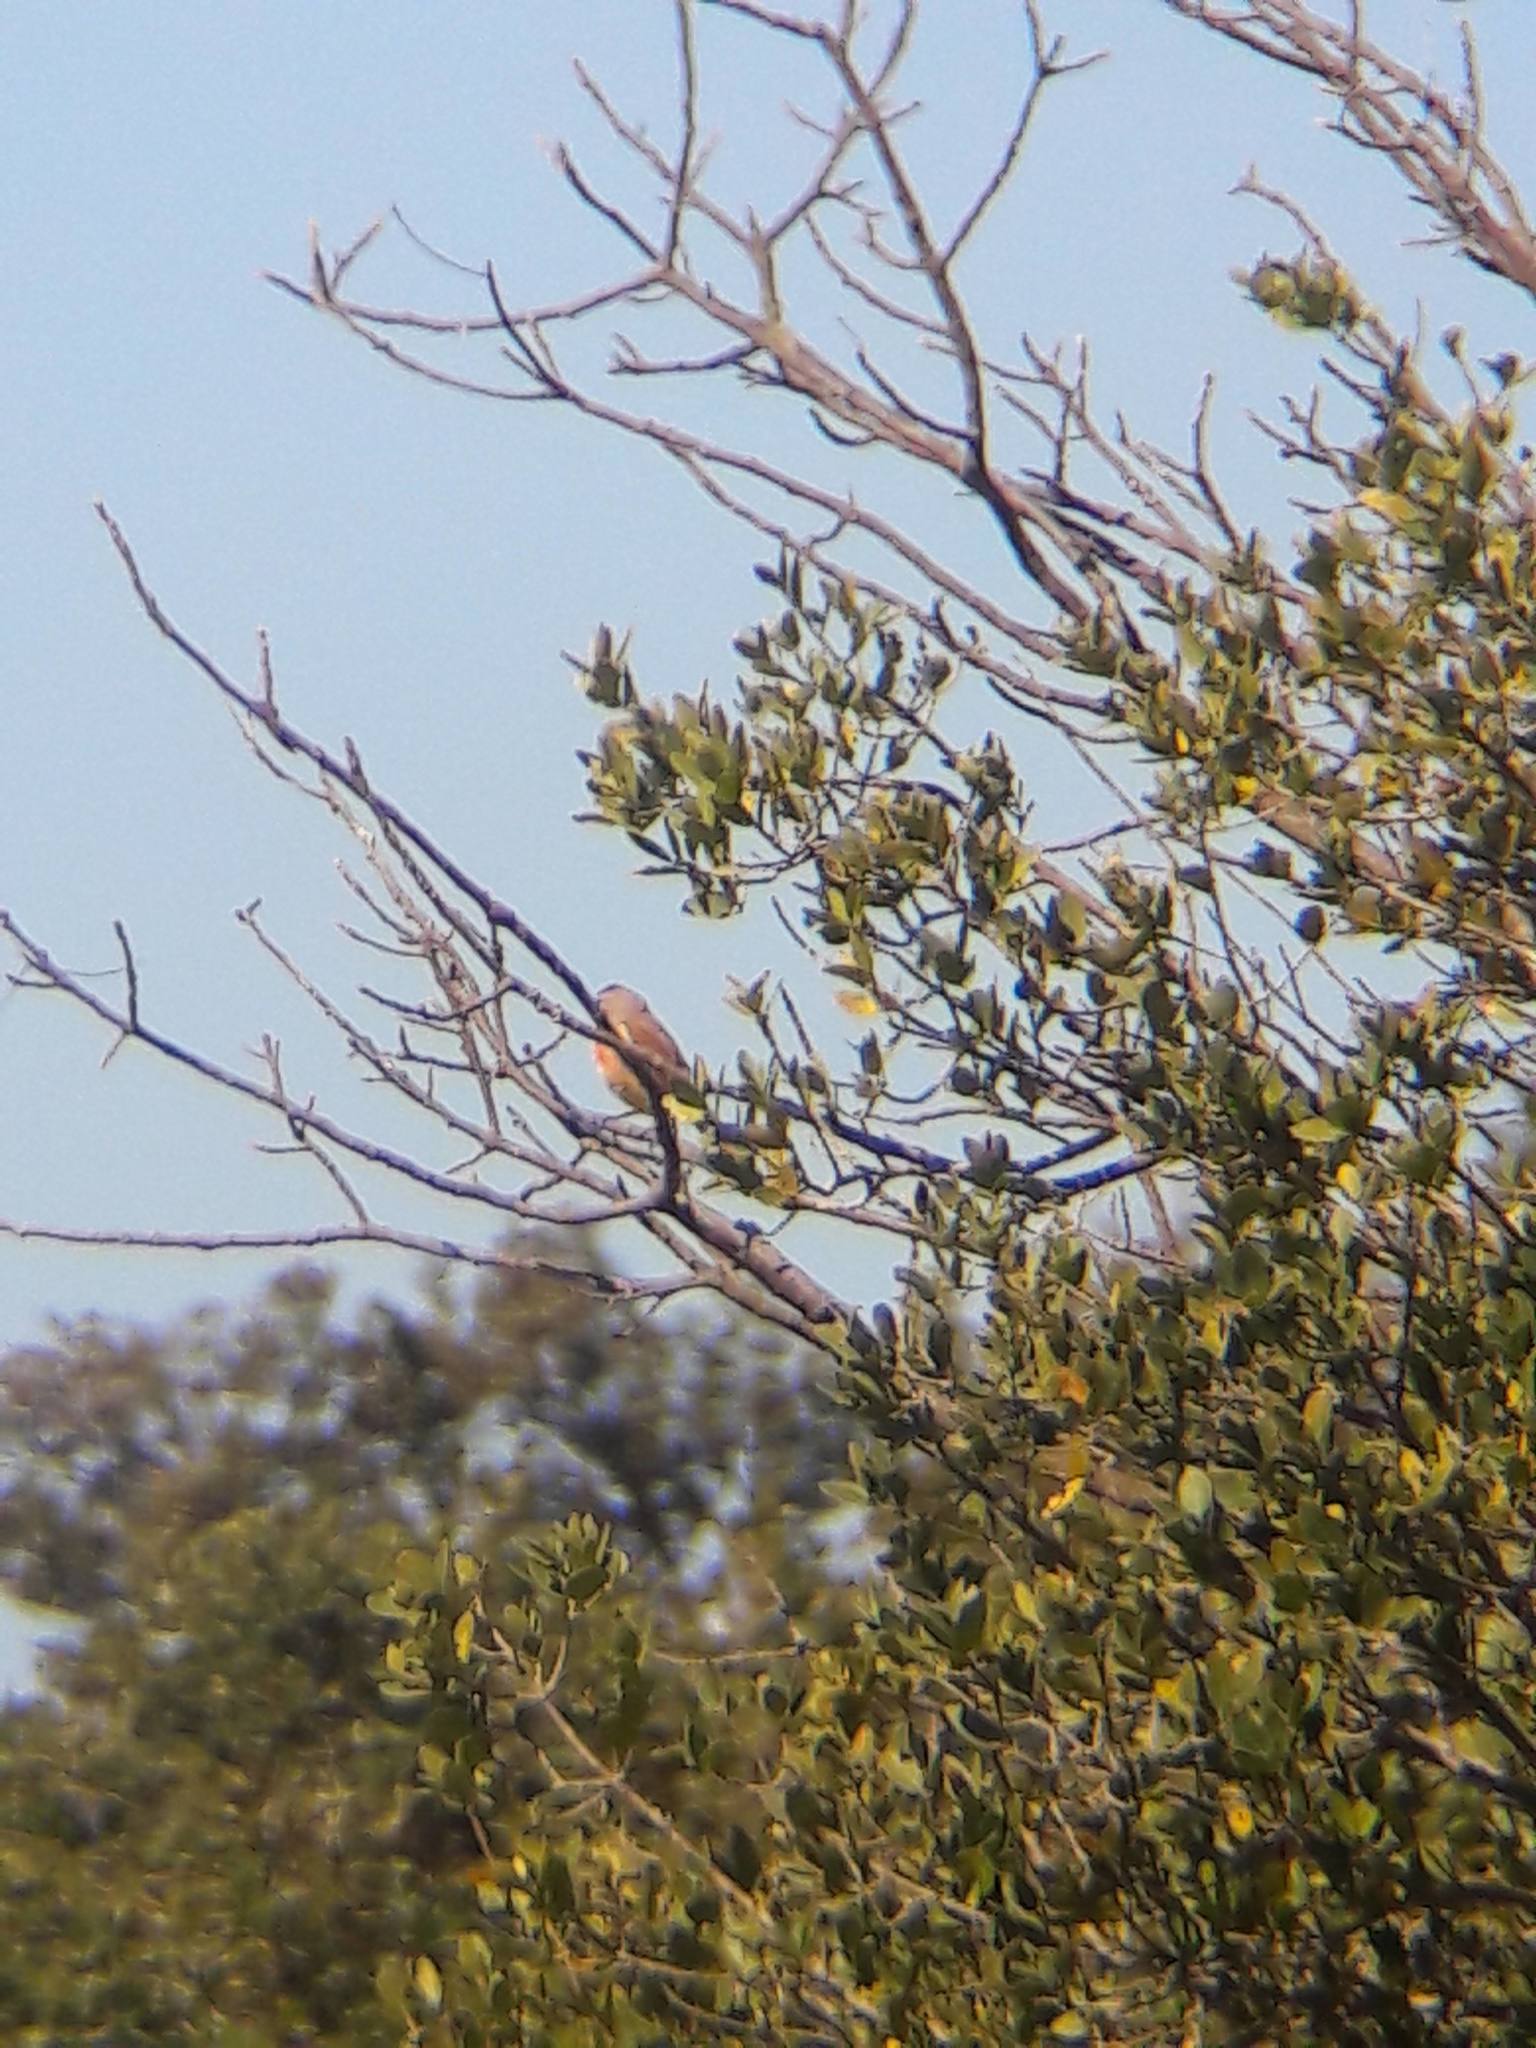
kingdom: Animalia
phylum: Chordata
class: Aves
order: Passeriformes
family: Fringillidae
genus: Linaria
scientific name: Linaria cannabina
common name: Common linnet
